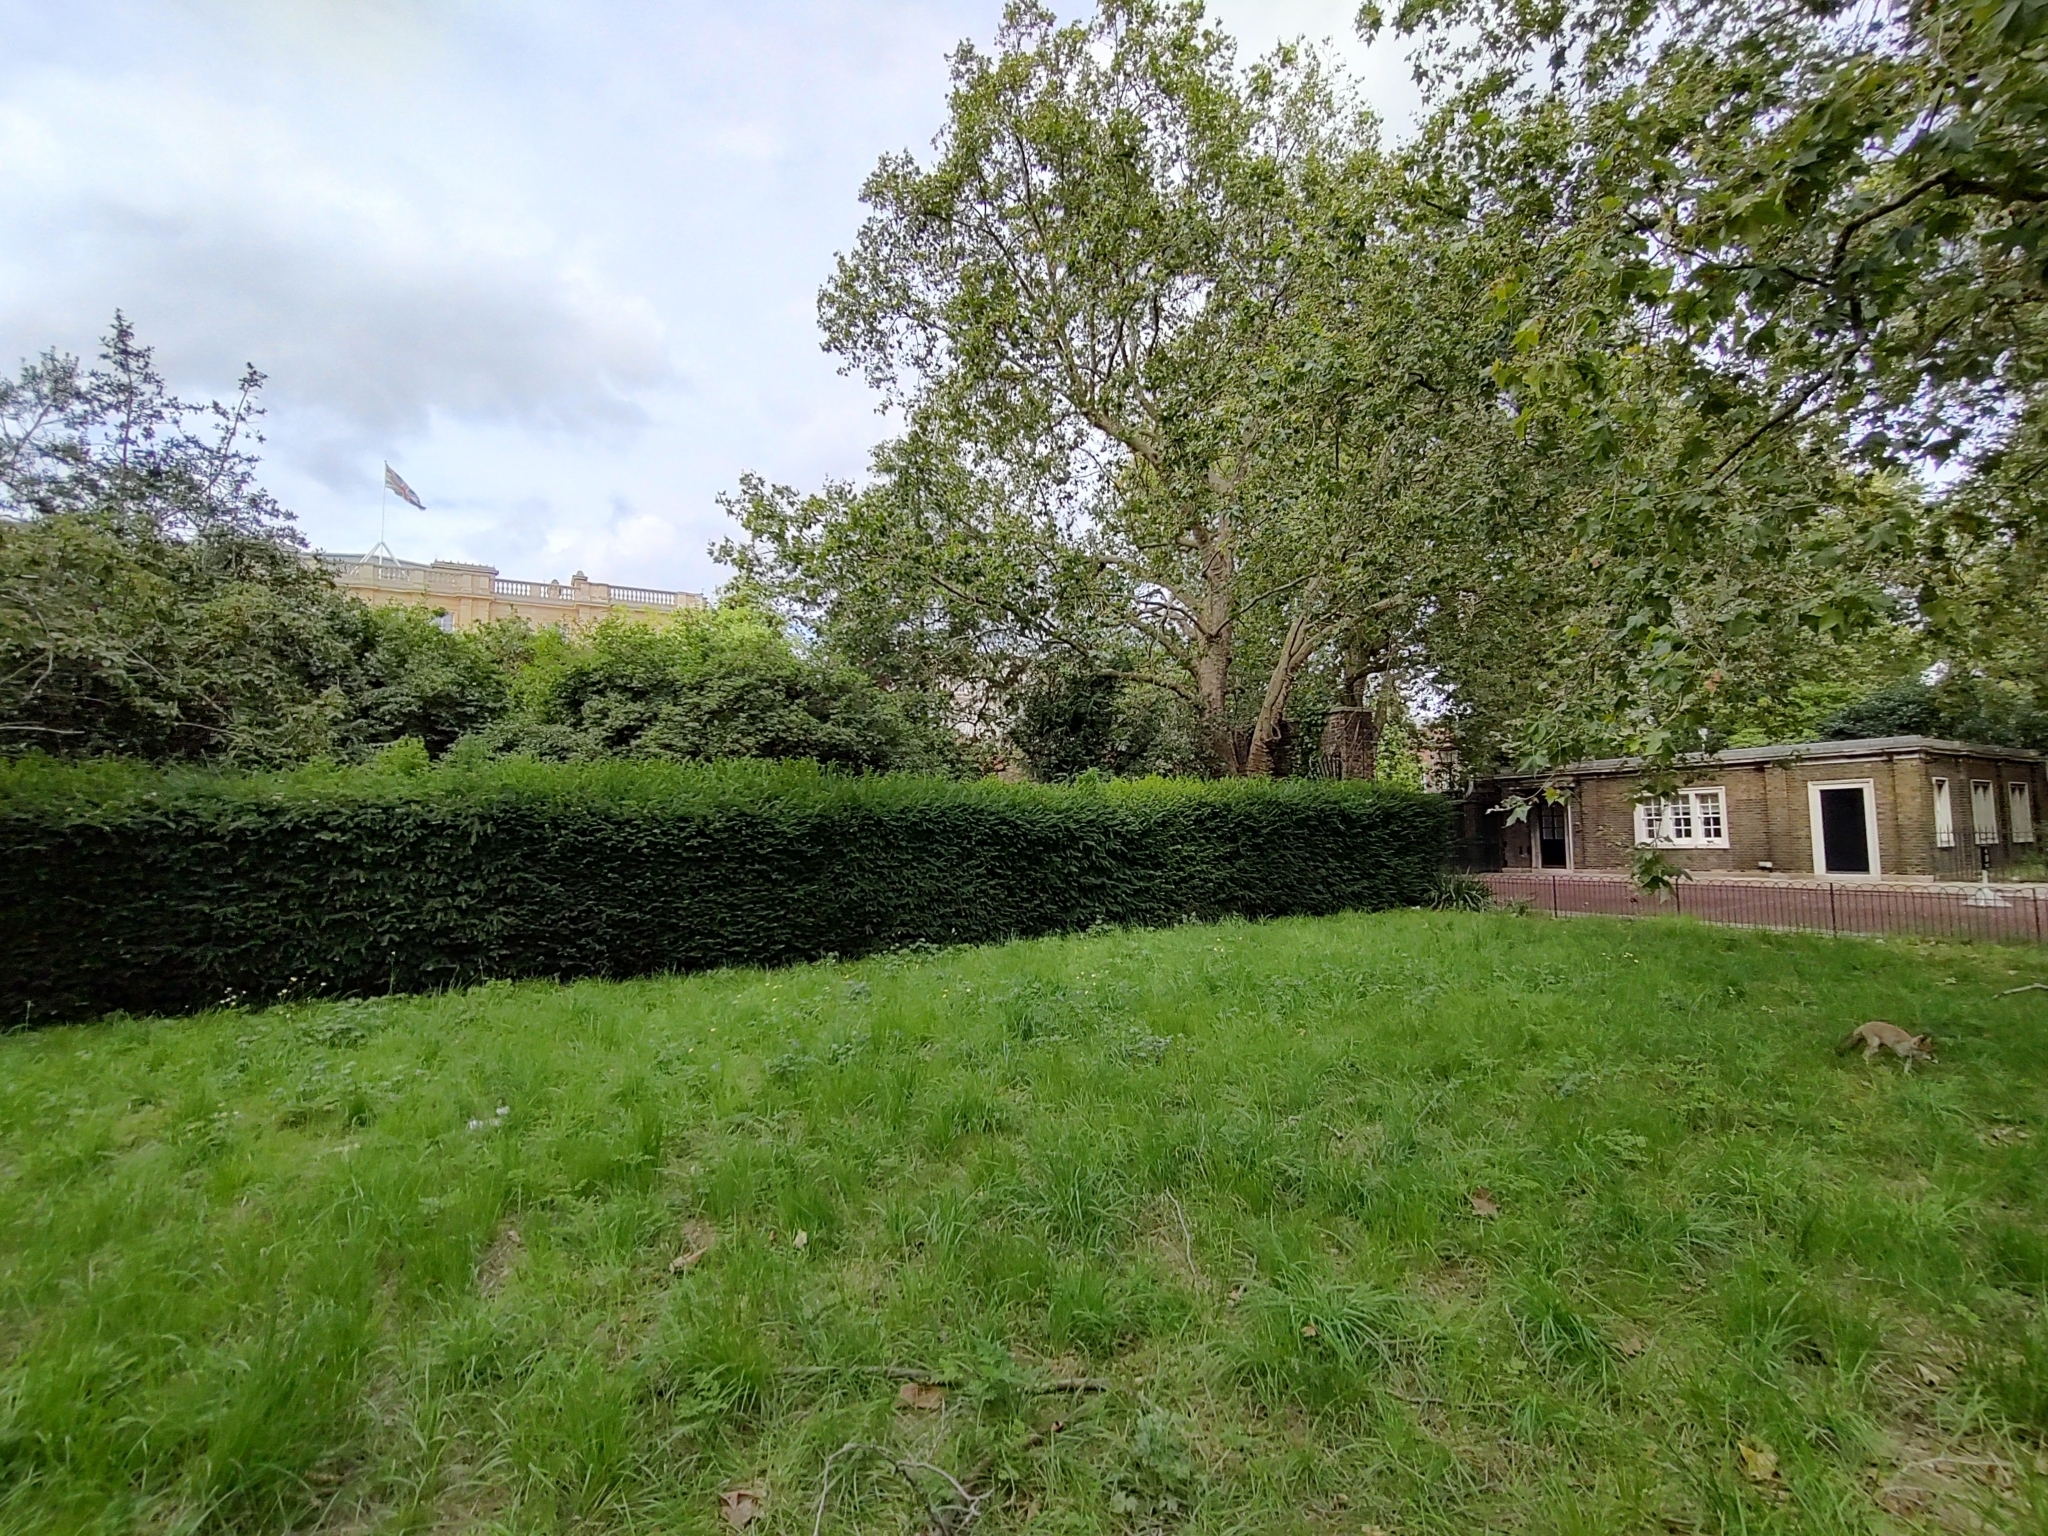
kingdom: Animalia
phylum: Chordata
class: Mammalia
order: Carnivora
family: Canidae
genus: Vulpes
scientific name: Vulpes vulpes
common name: Red fox
